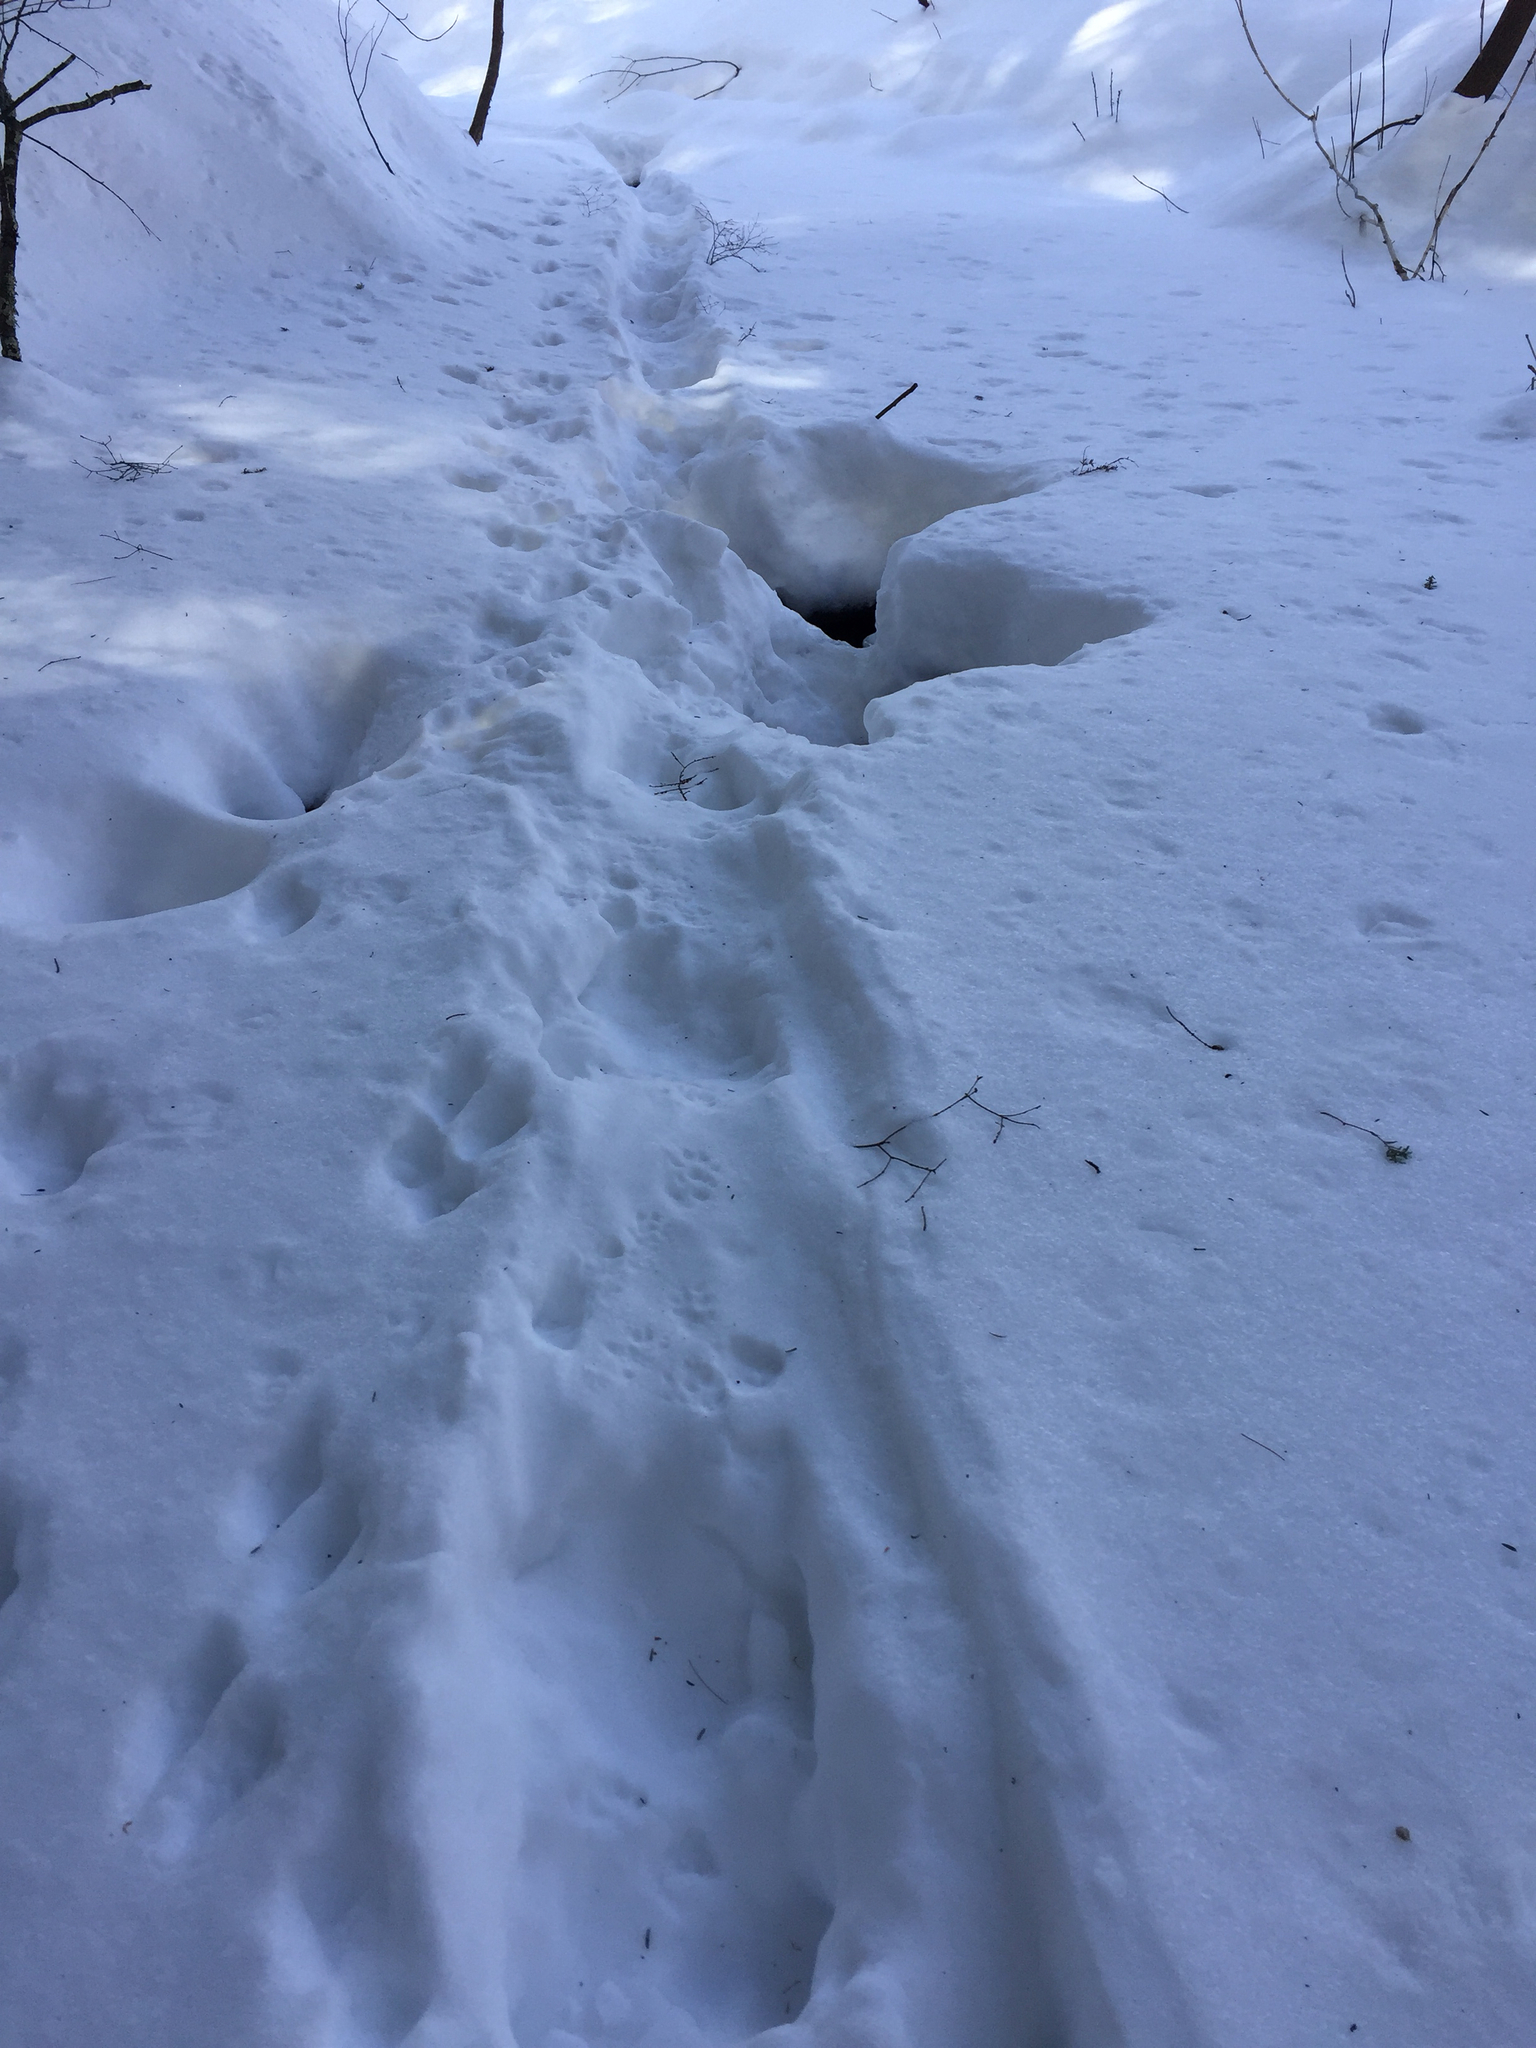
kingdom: Animalia
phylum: Chordata
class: Mammalia
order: Carnivora
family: Mustelidae
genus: Lontra
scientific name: Lontra canadensis
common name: North american river otter
